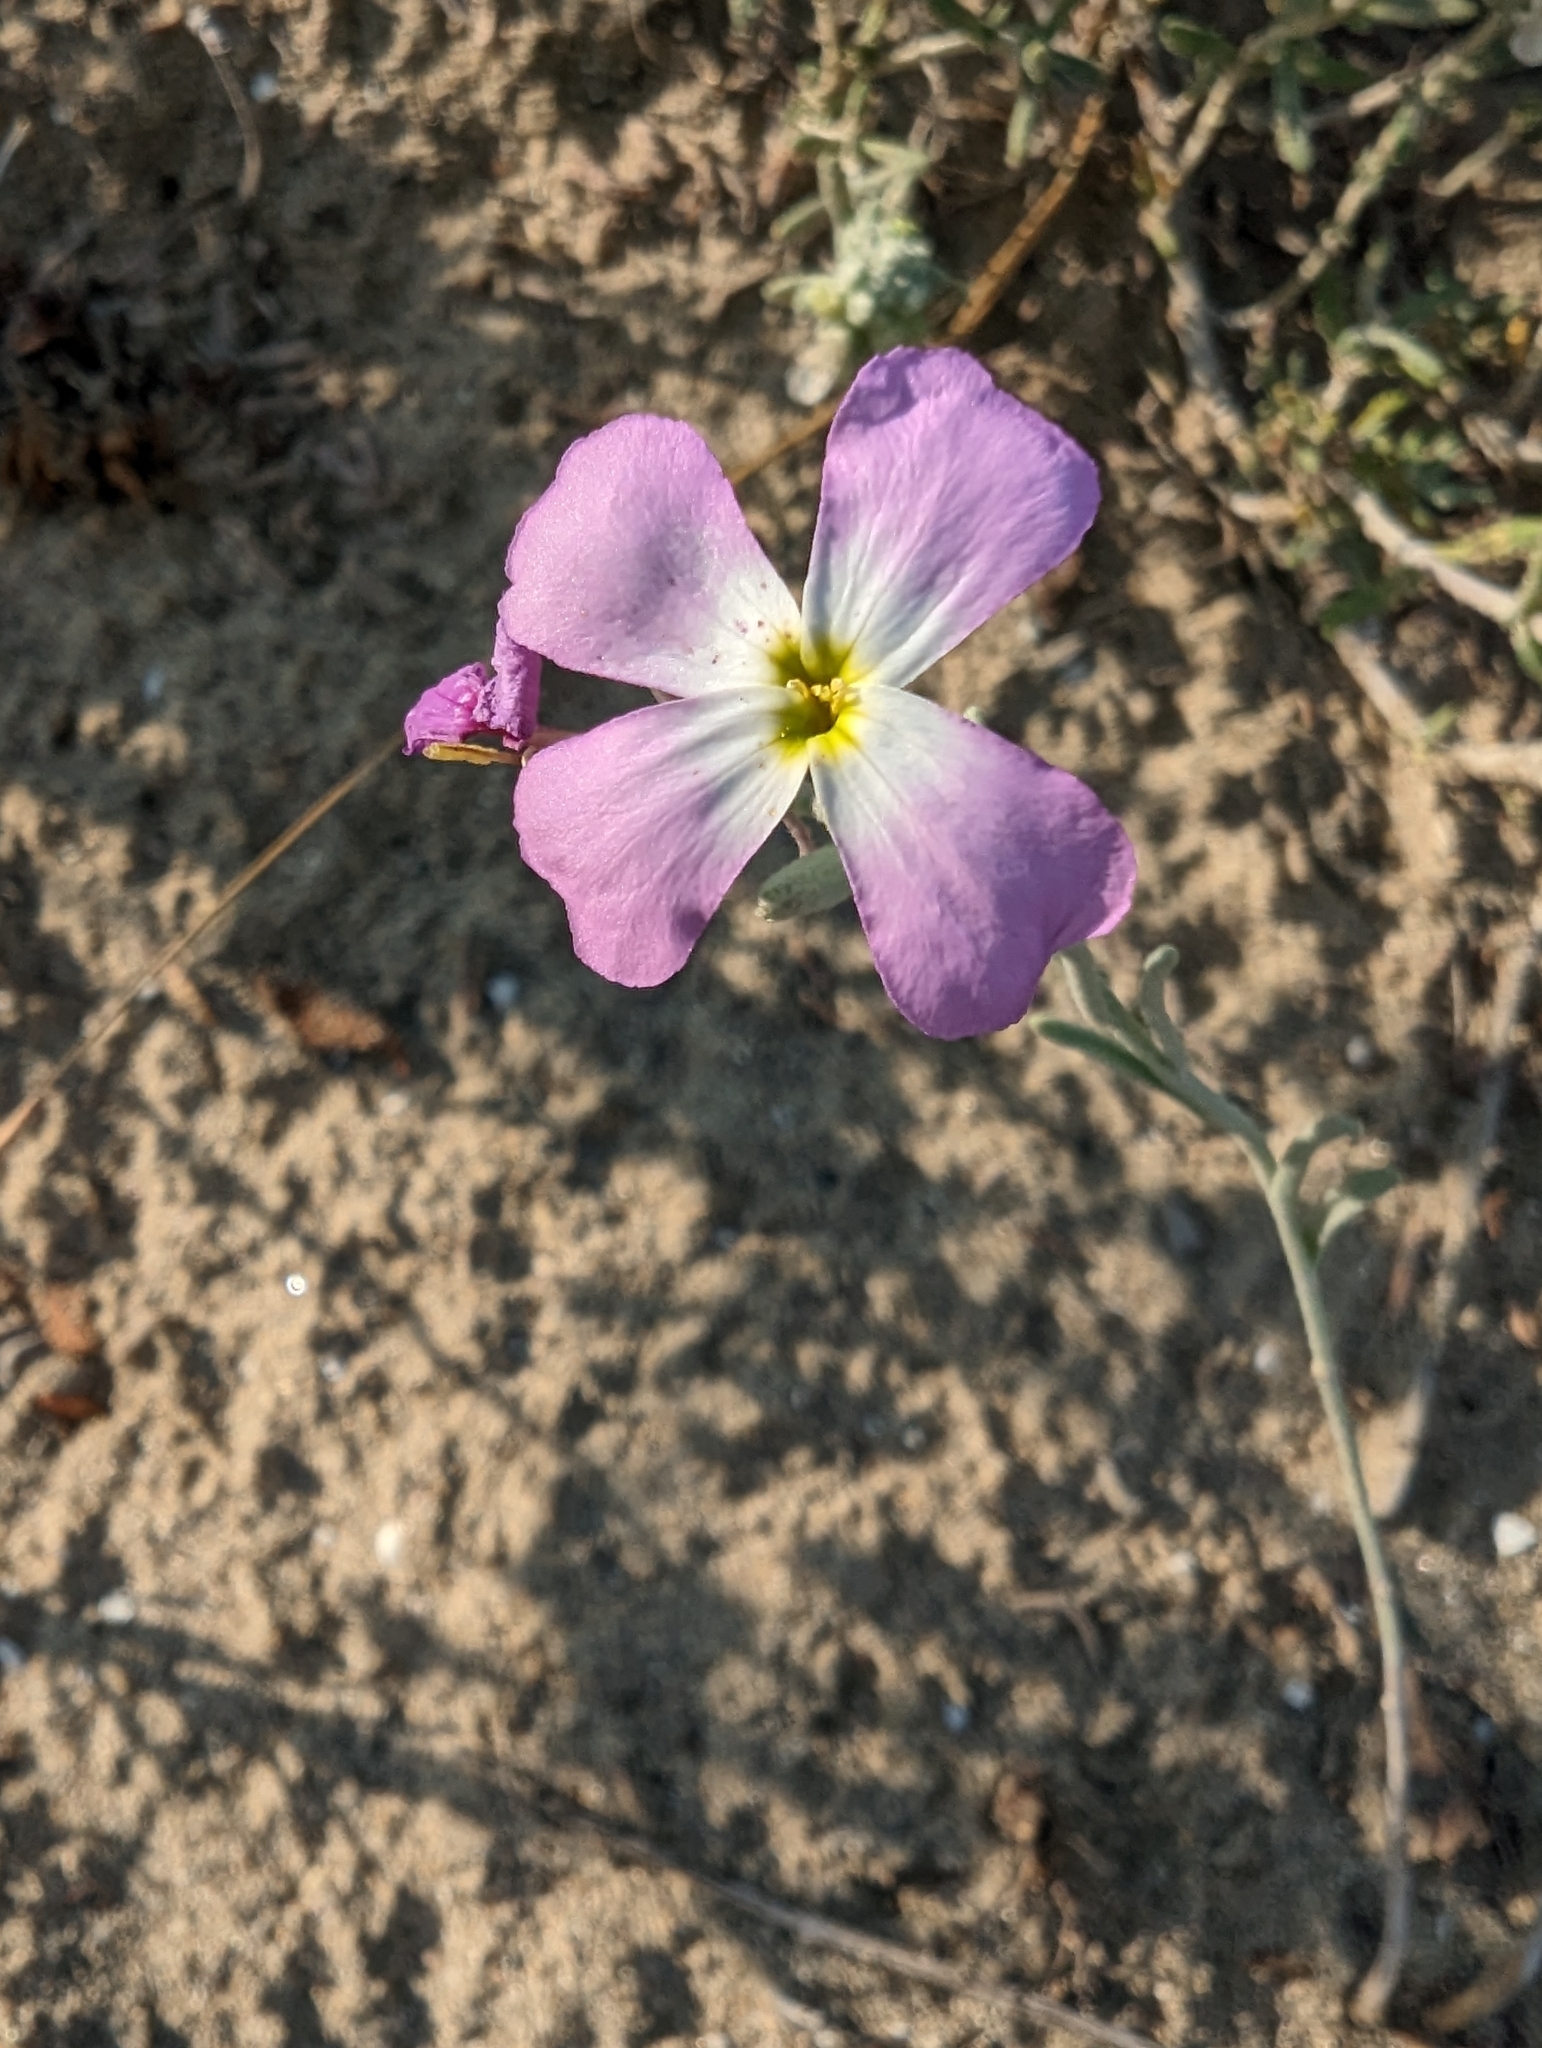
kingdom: Plantae
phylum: Tracheophyta
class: Magnoliopsida
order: Brassicales
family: Brassicaceae
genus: Marcuskochia
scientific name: Marcuskochia littorea
